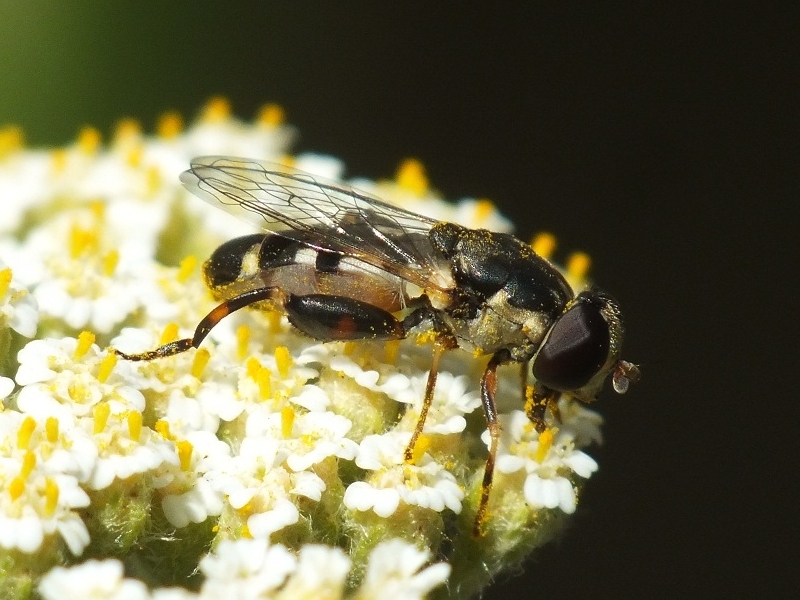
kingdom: Animalia
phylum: Arthropoda
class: Insecta
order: Diptera
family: Syrphidae
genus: Syritta
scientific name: Syritta pipiens
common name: Hover fly
